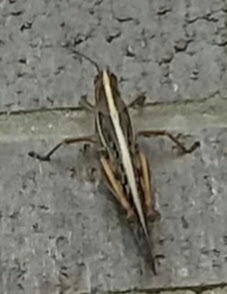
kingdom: Animalia
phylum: Arthropoda
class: Insecta
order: Orthoptera
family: Acrididae
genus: Schistocerca
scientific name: Schistocerca americana
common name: American bird locust
